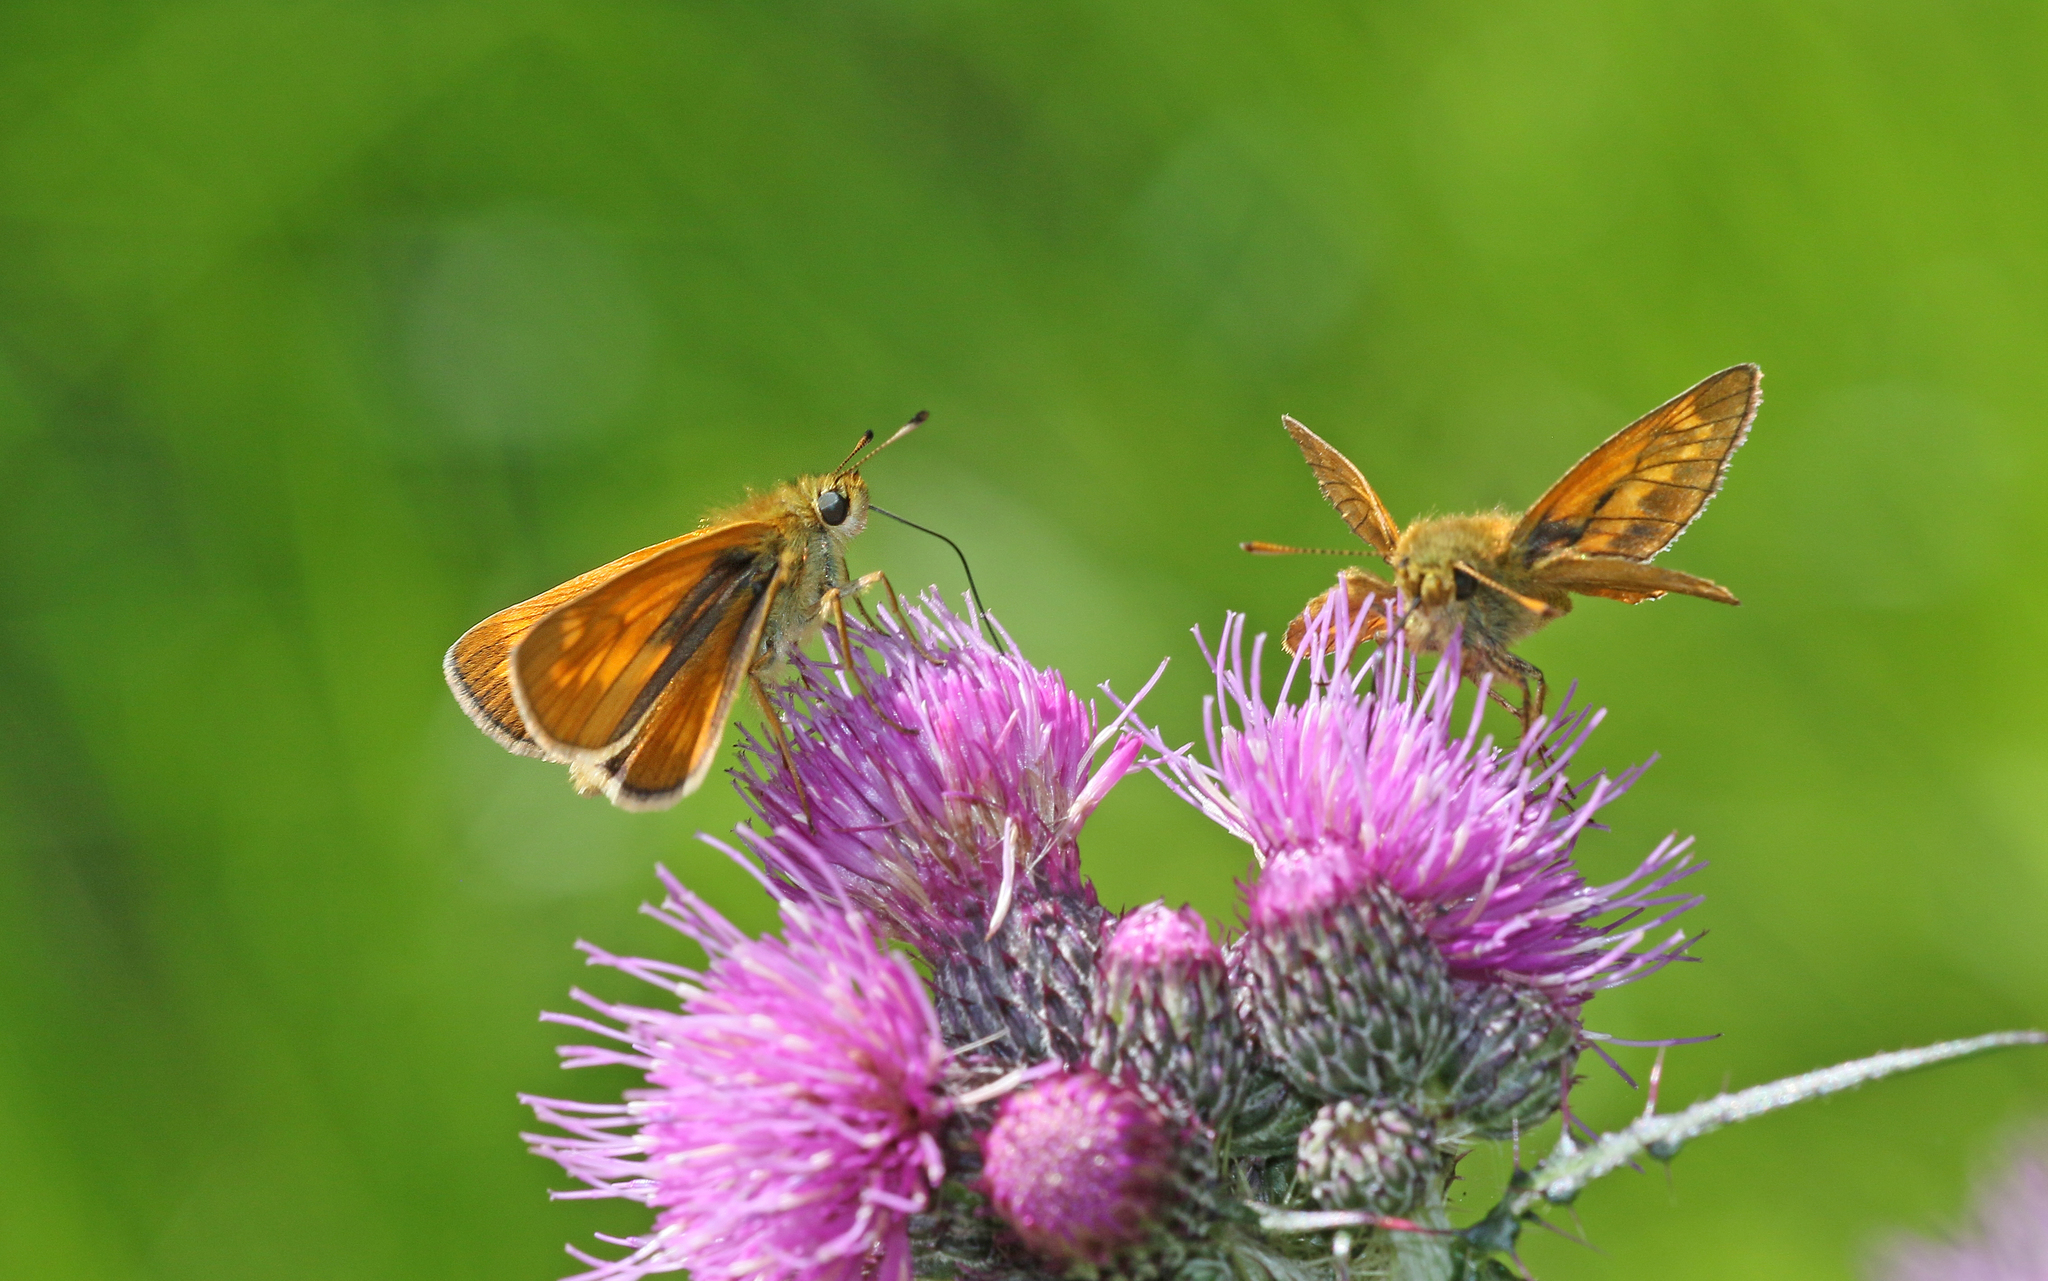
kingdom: Animalia
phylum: Arthropoda
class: Insecta
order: Lepidoptera
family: Hesperiidae
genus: Ochlodes
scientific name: Ochlodes venata
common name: Large skipper
